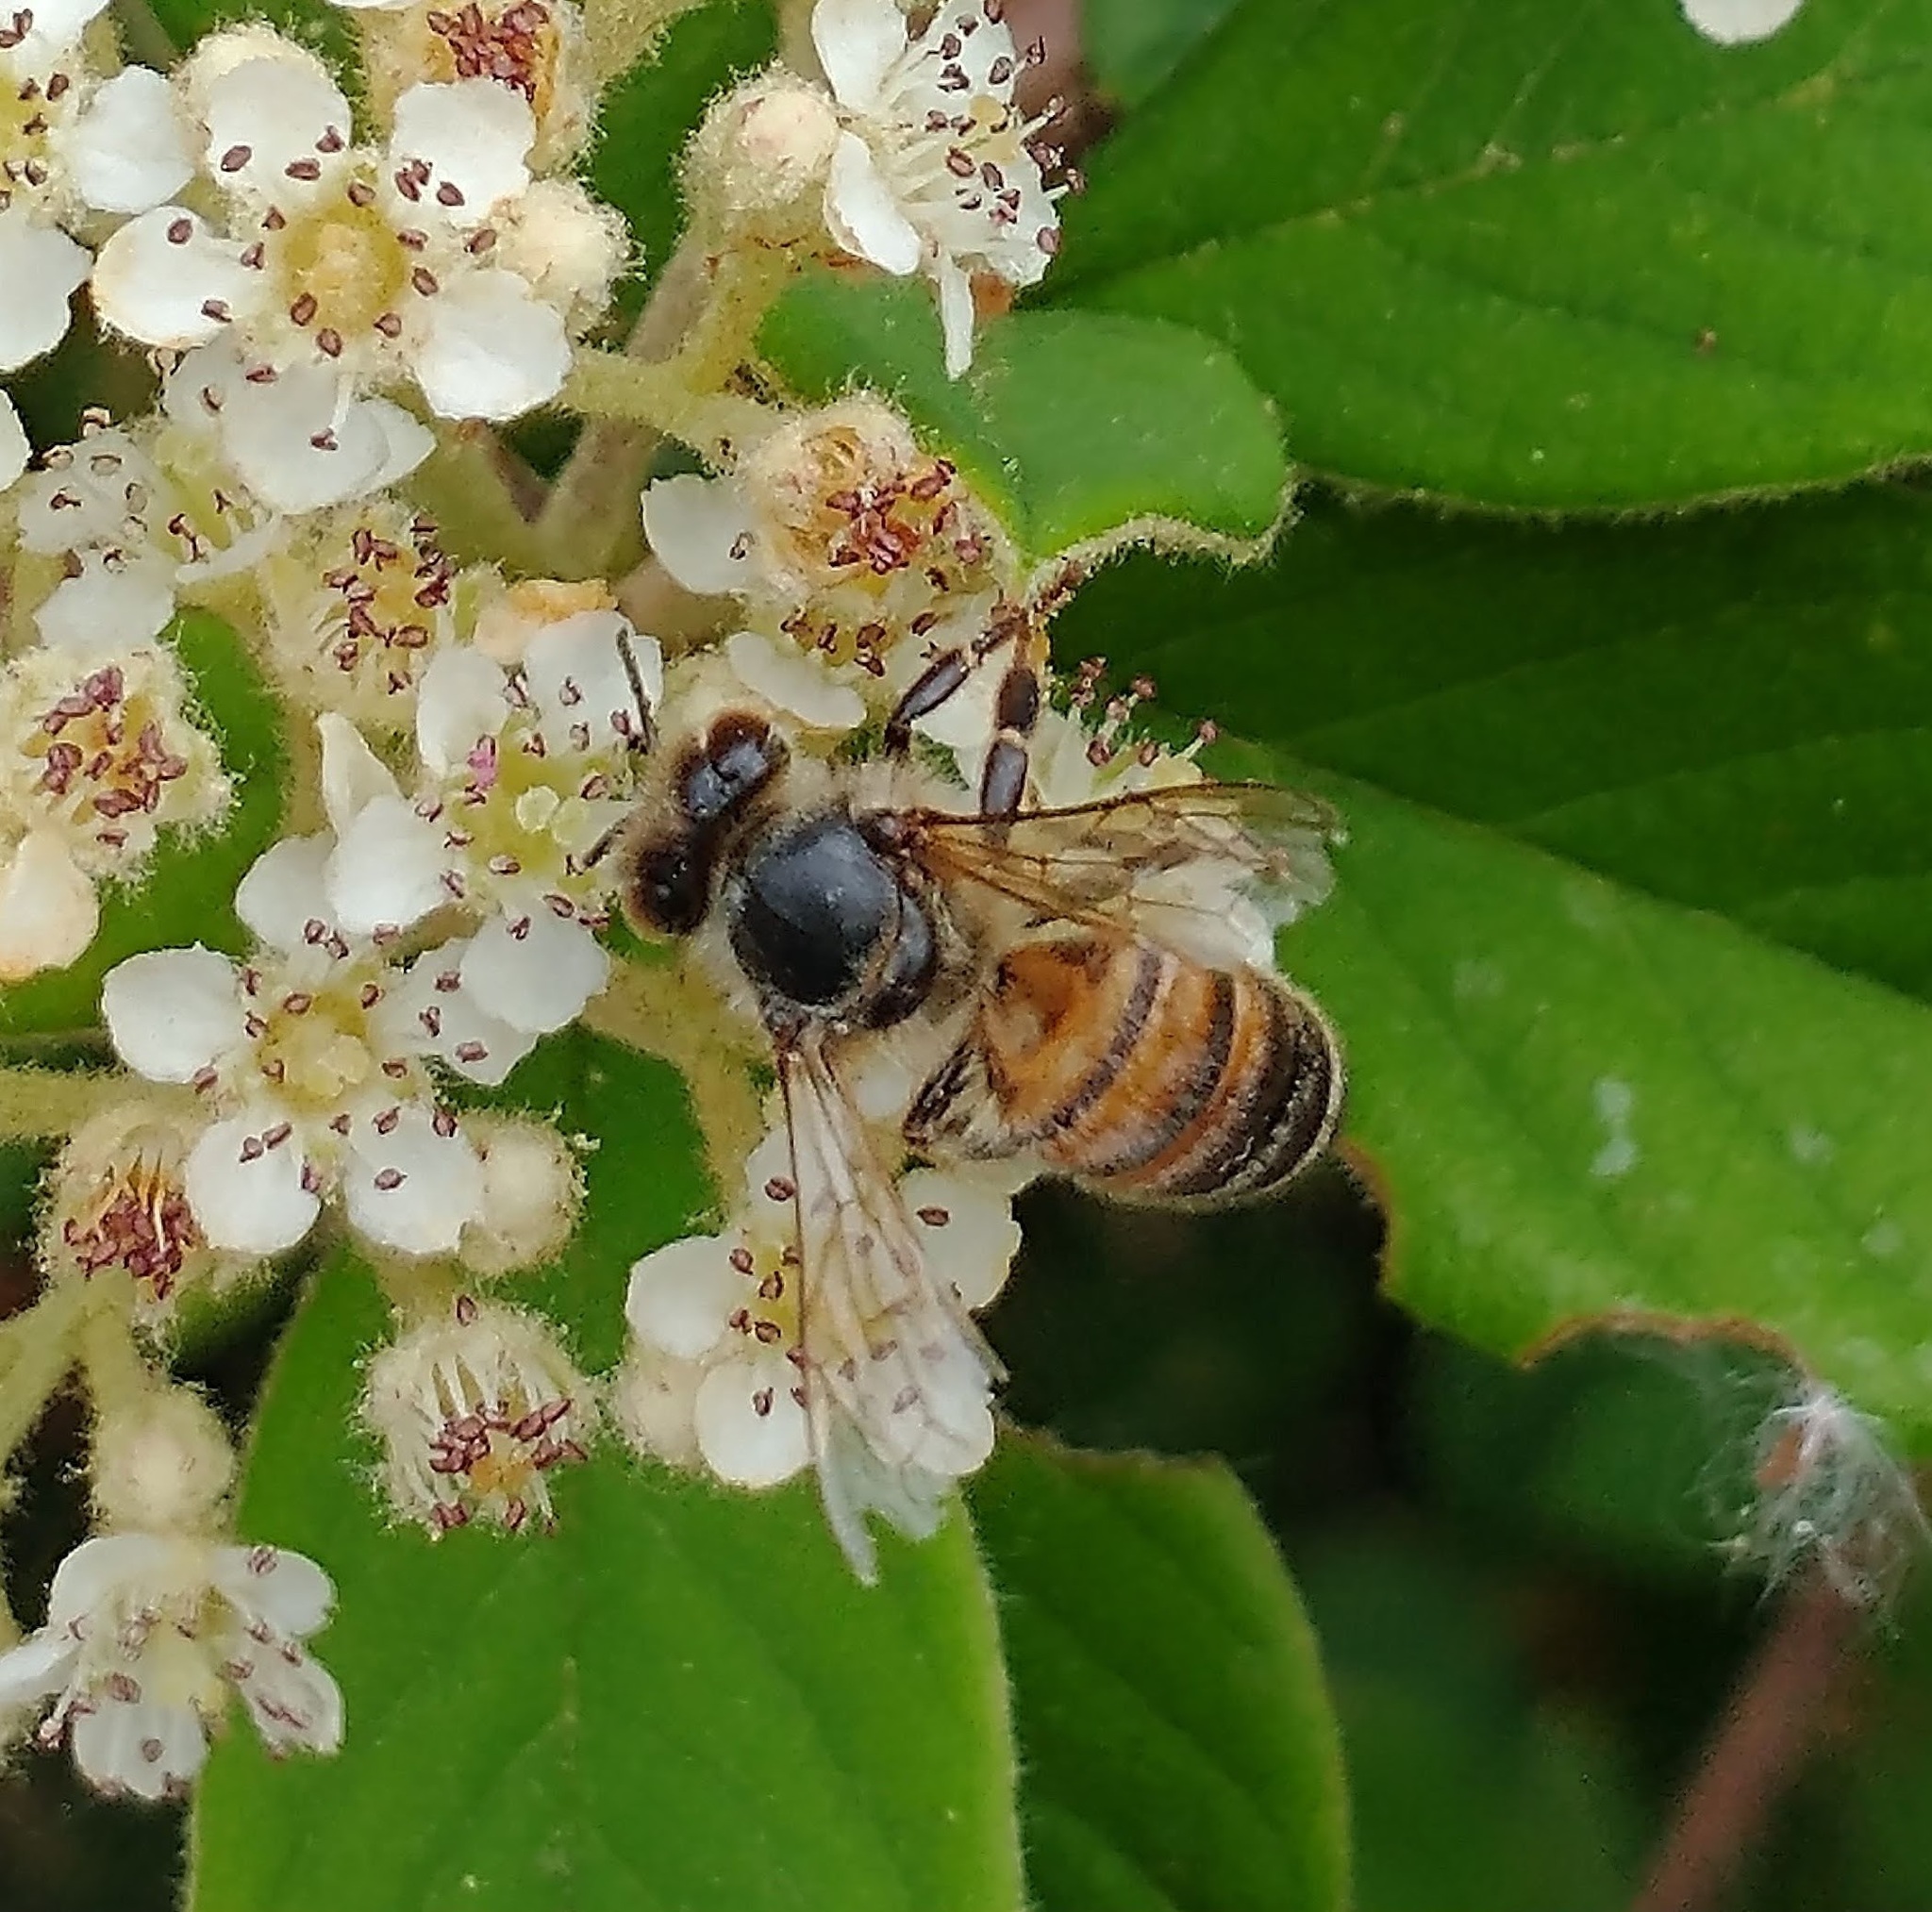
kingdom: Animalia
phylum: Arthropoda
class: Insecta
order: Hymenoptera
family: Apidae
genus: Apis
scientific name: Apis mellifera
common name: Honey bee
